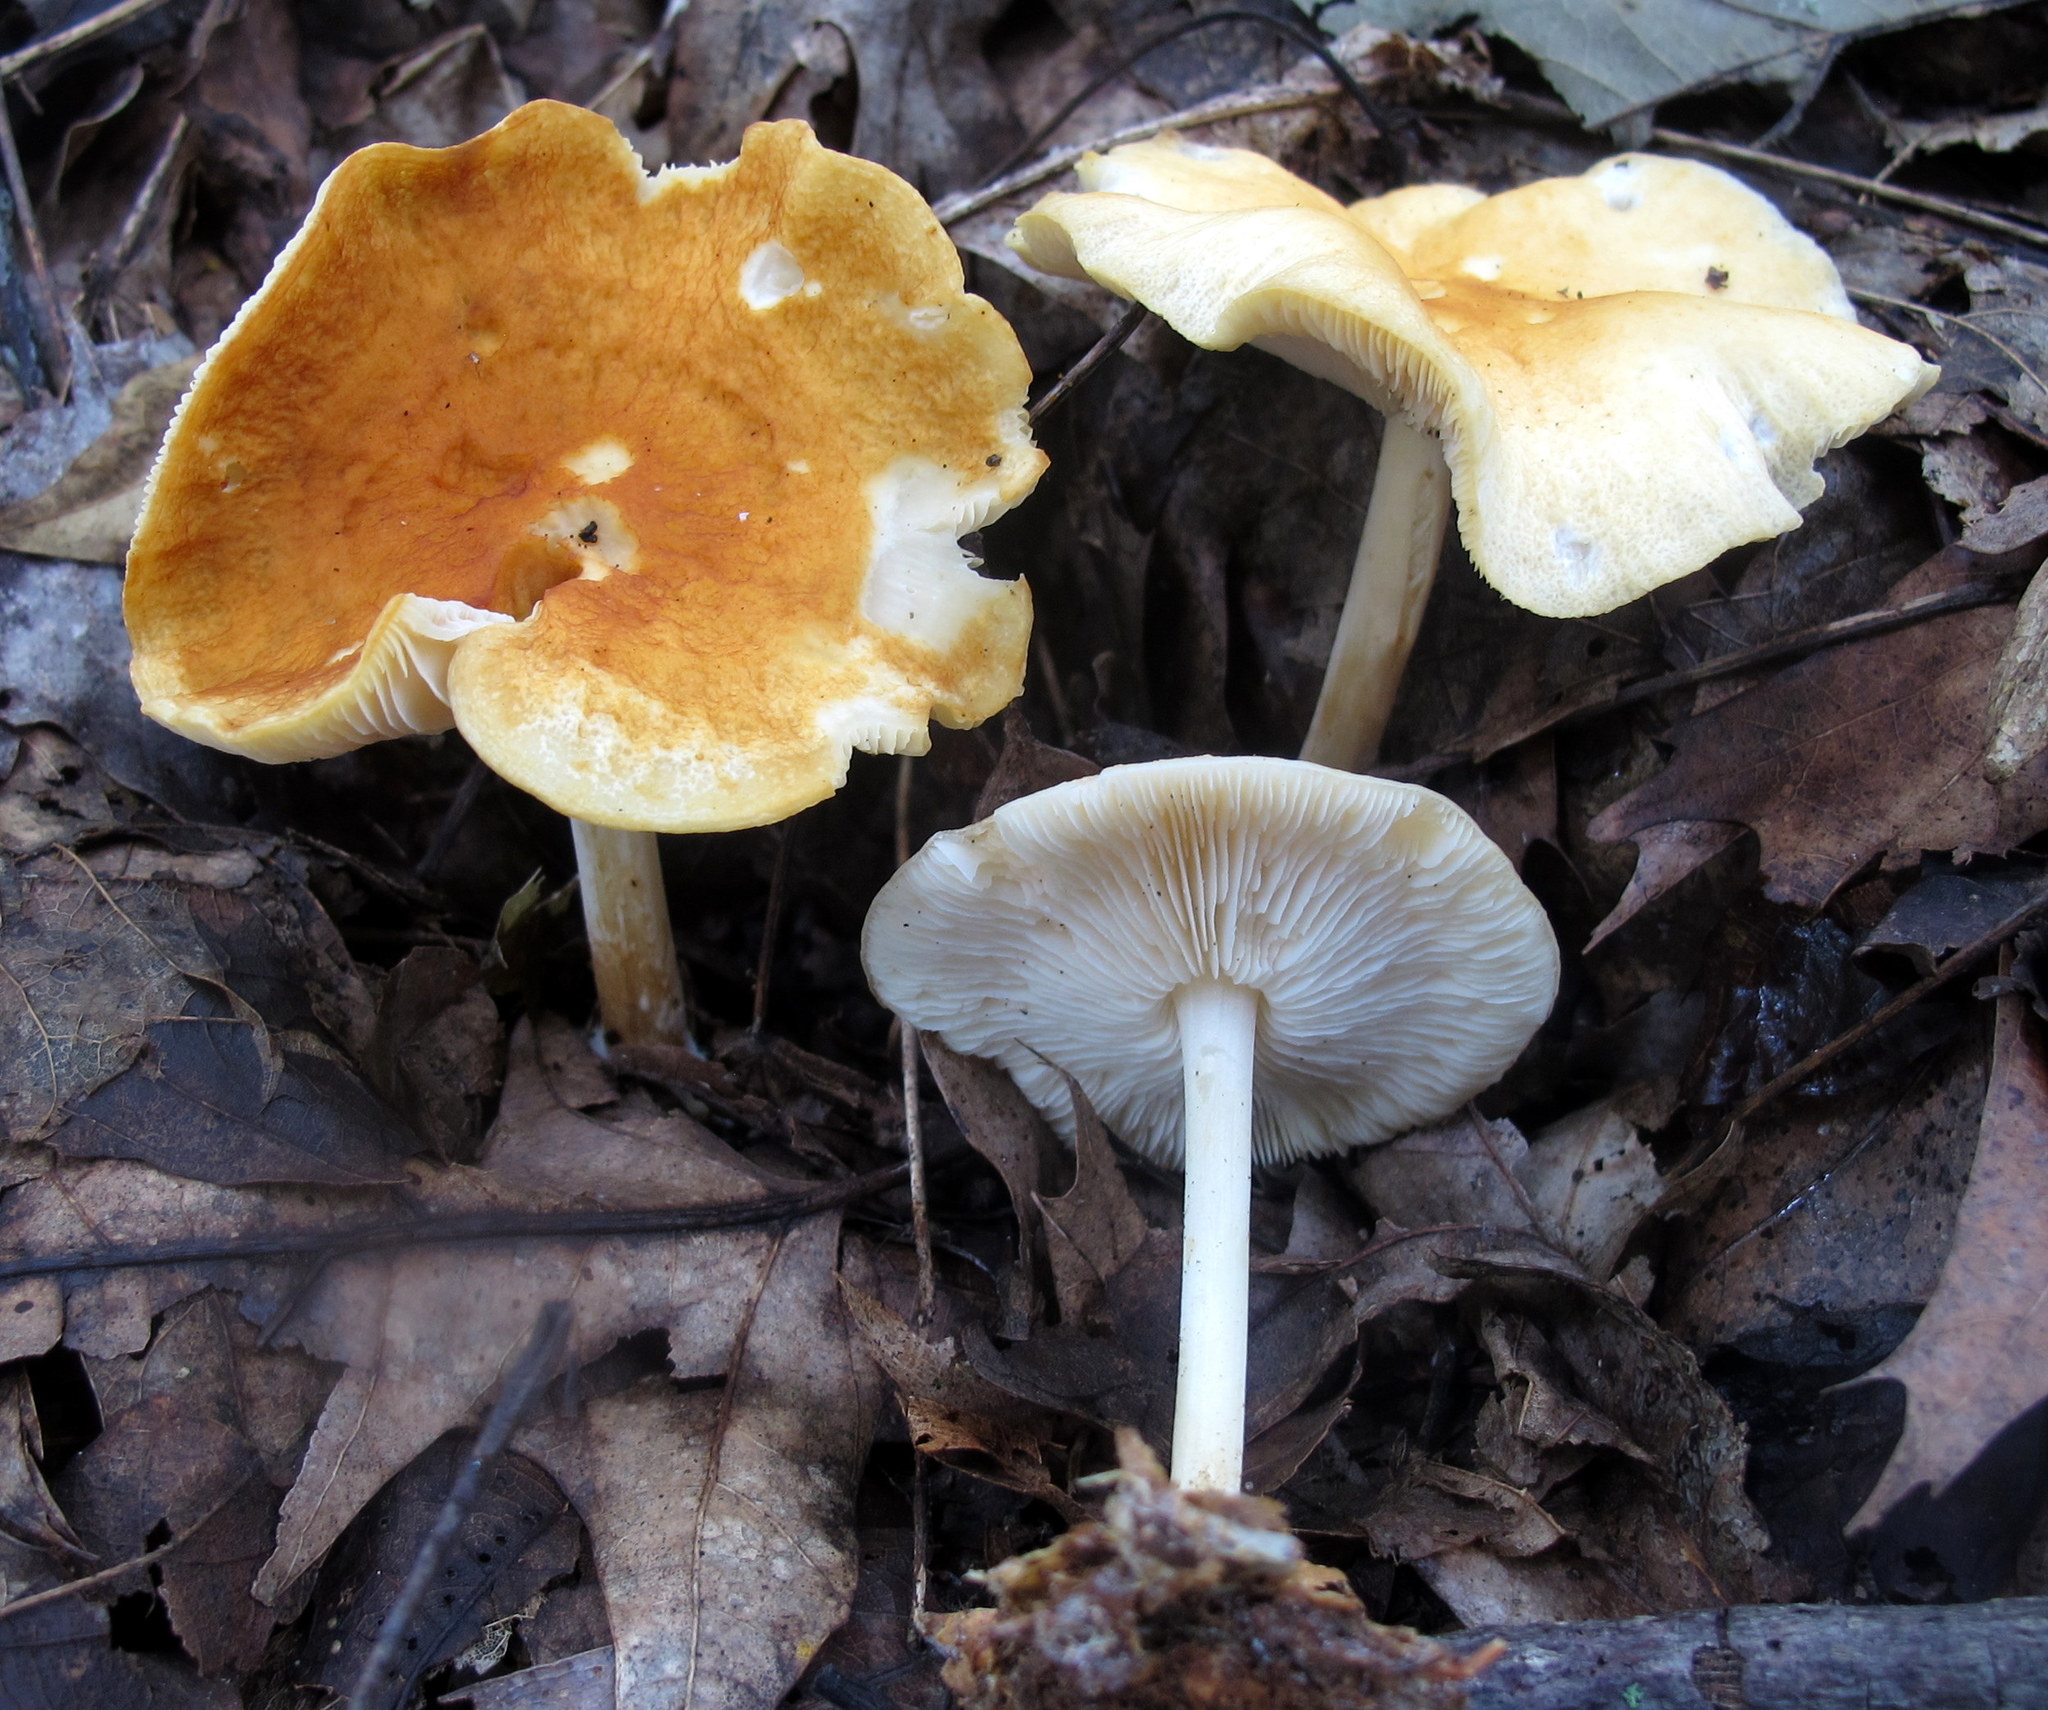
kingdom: Fungi
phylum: Basidiomycota
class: Agaricomycetes
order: Agaricales
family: Marasmiaceae
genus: Marasmius
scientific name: Marasmius strictipes
